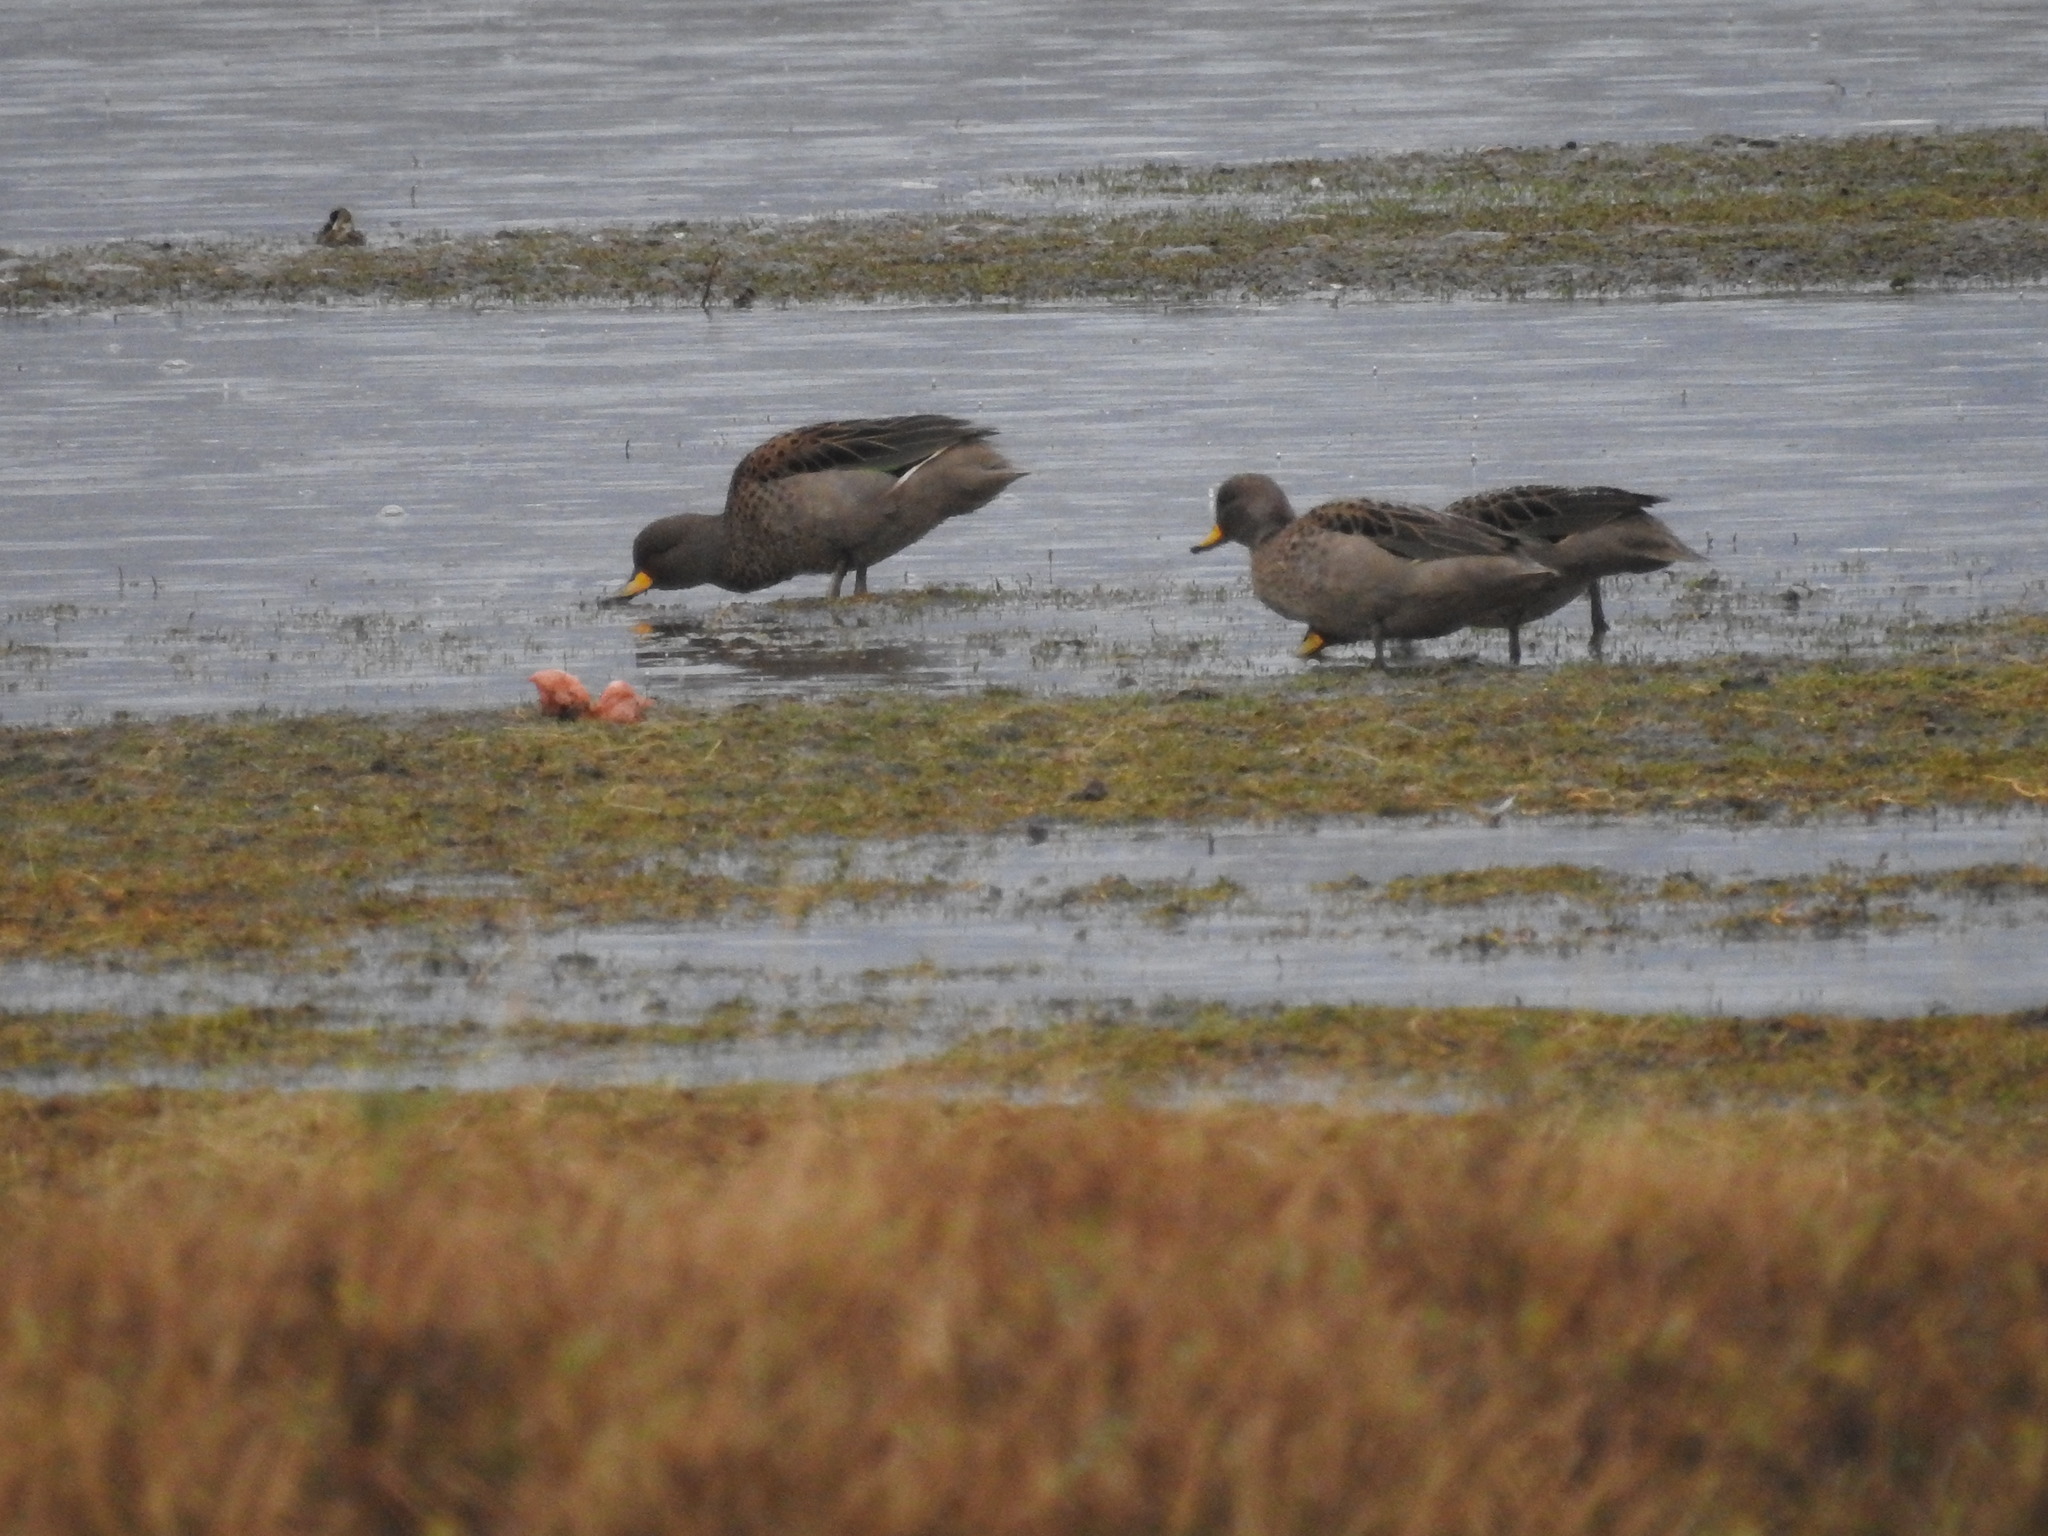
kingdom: Animalia
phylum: Chordata
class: Aves
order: Anseriformes
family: Anatidae
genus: Anas
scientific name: Anas flavirostris
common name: Yellow-billed teal
